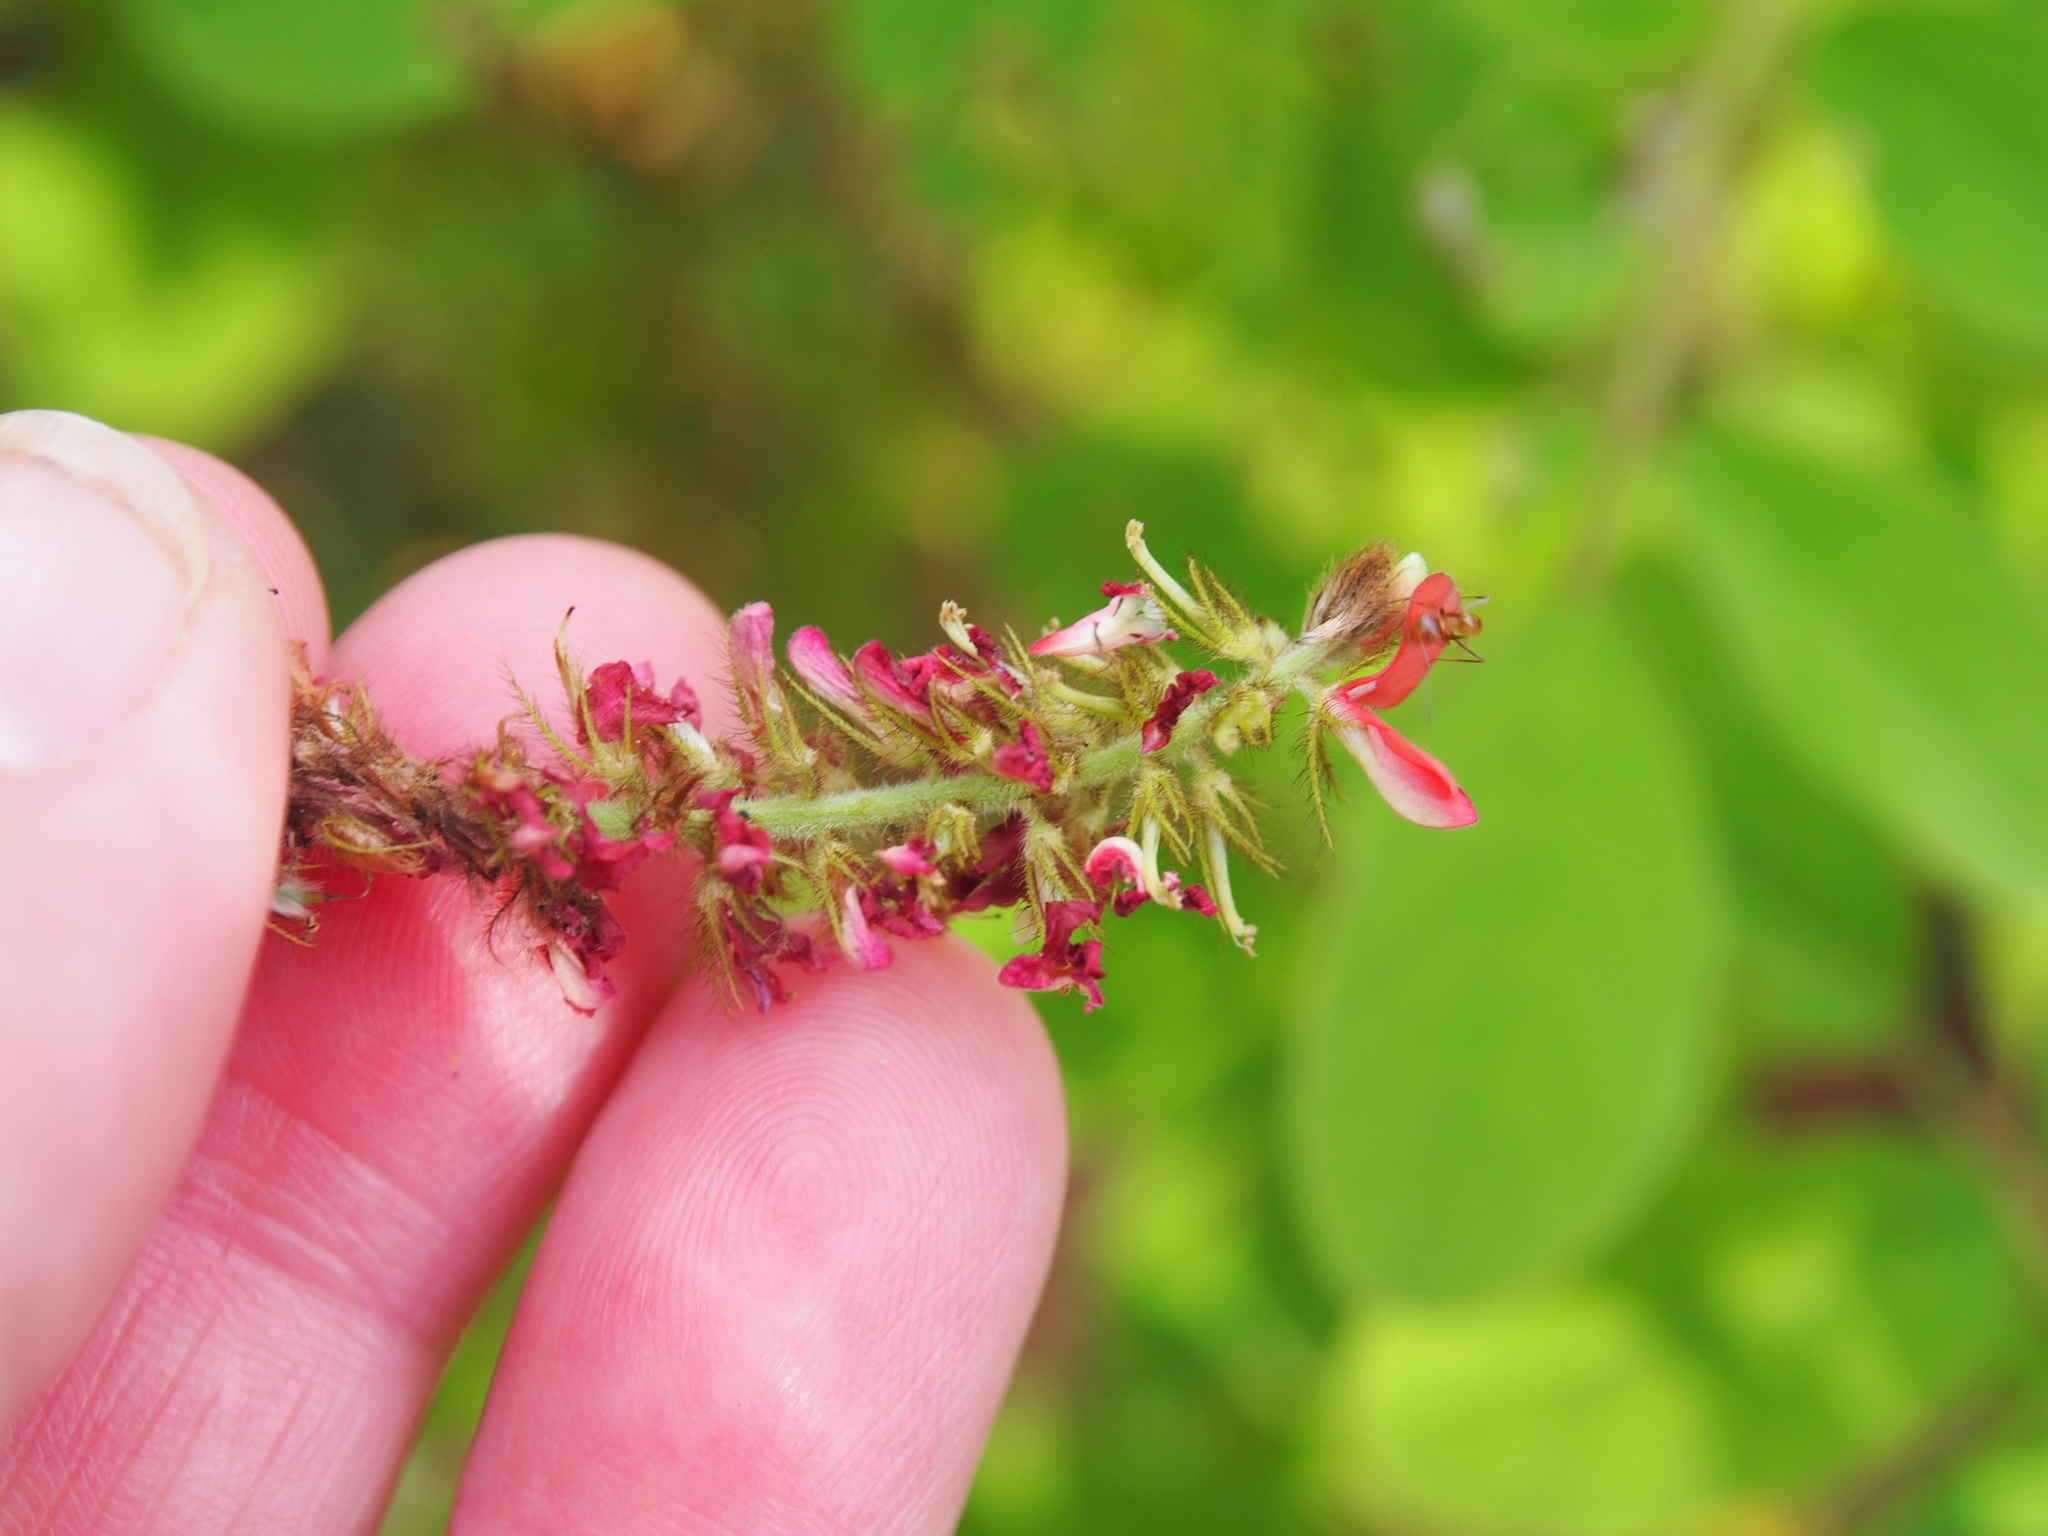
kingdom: Plantae
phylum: Tracheophyta
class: Magnoliopsida
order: Fabales
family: Fabaceae
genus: Indigofera
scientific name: Indigofera hirsuta
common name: Hairy indigo
